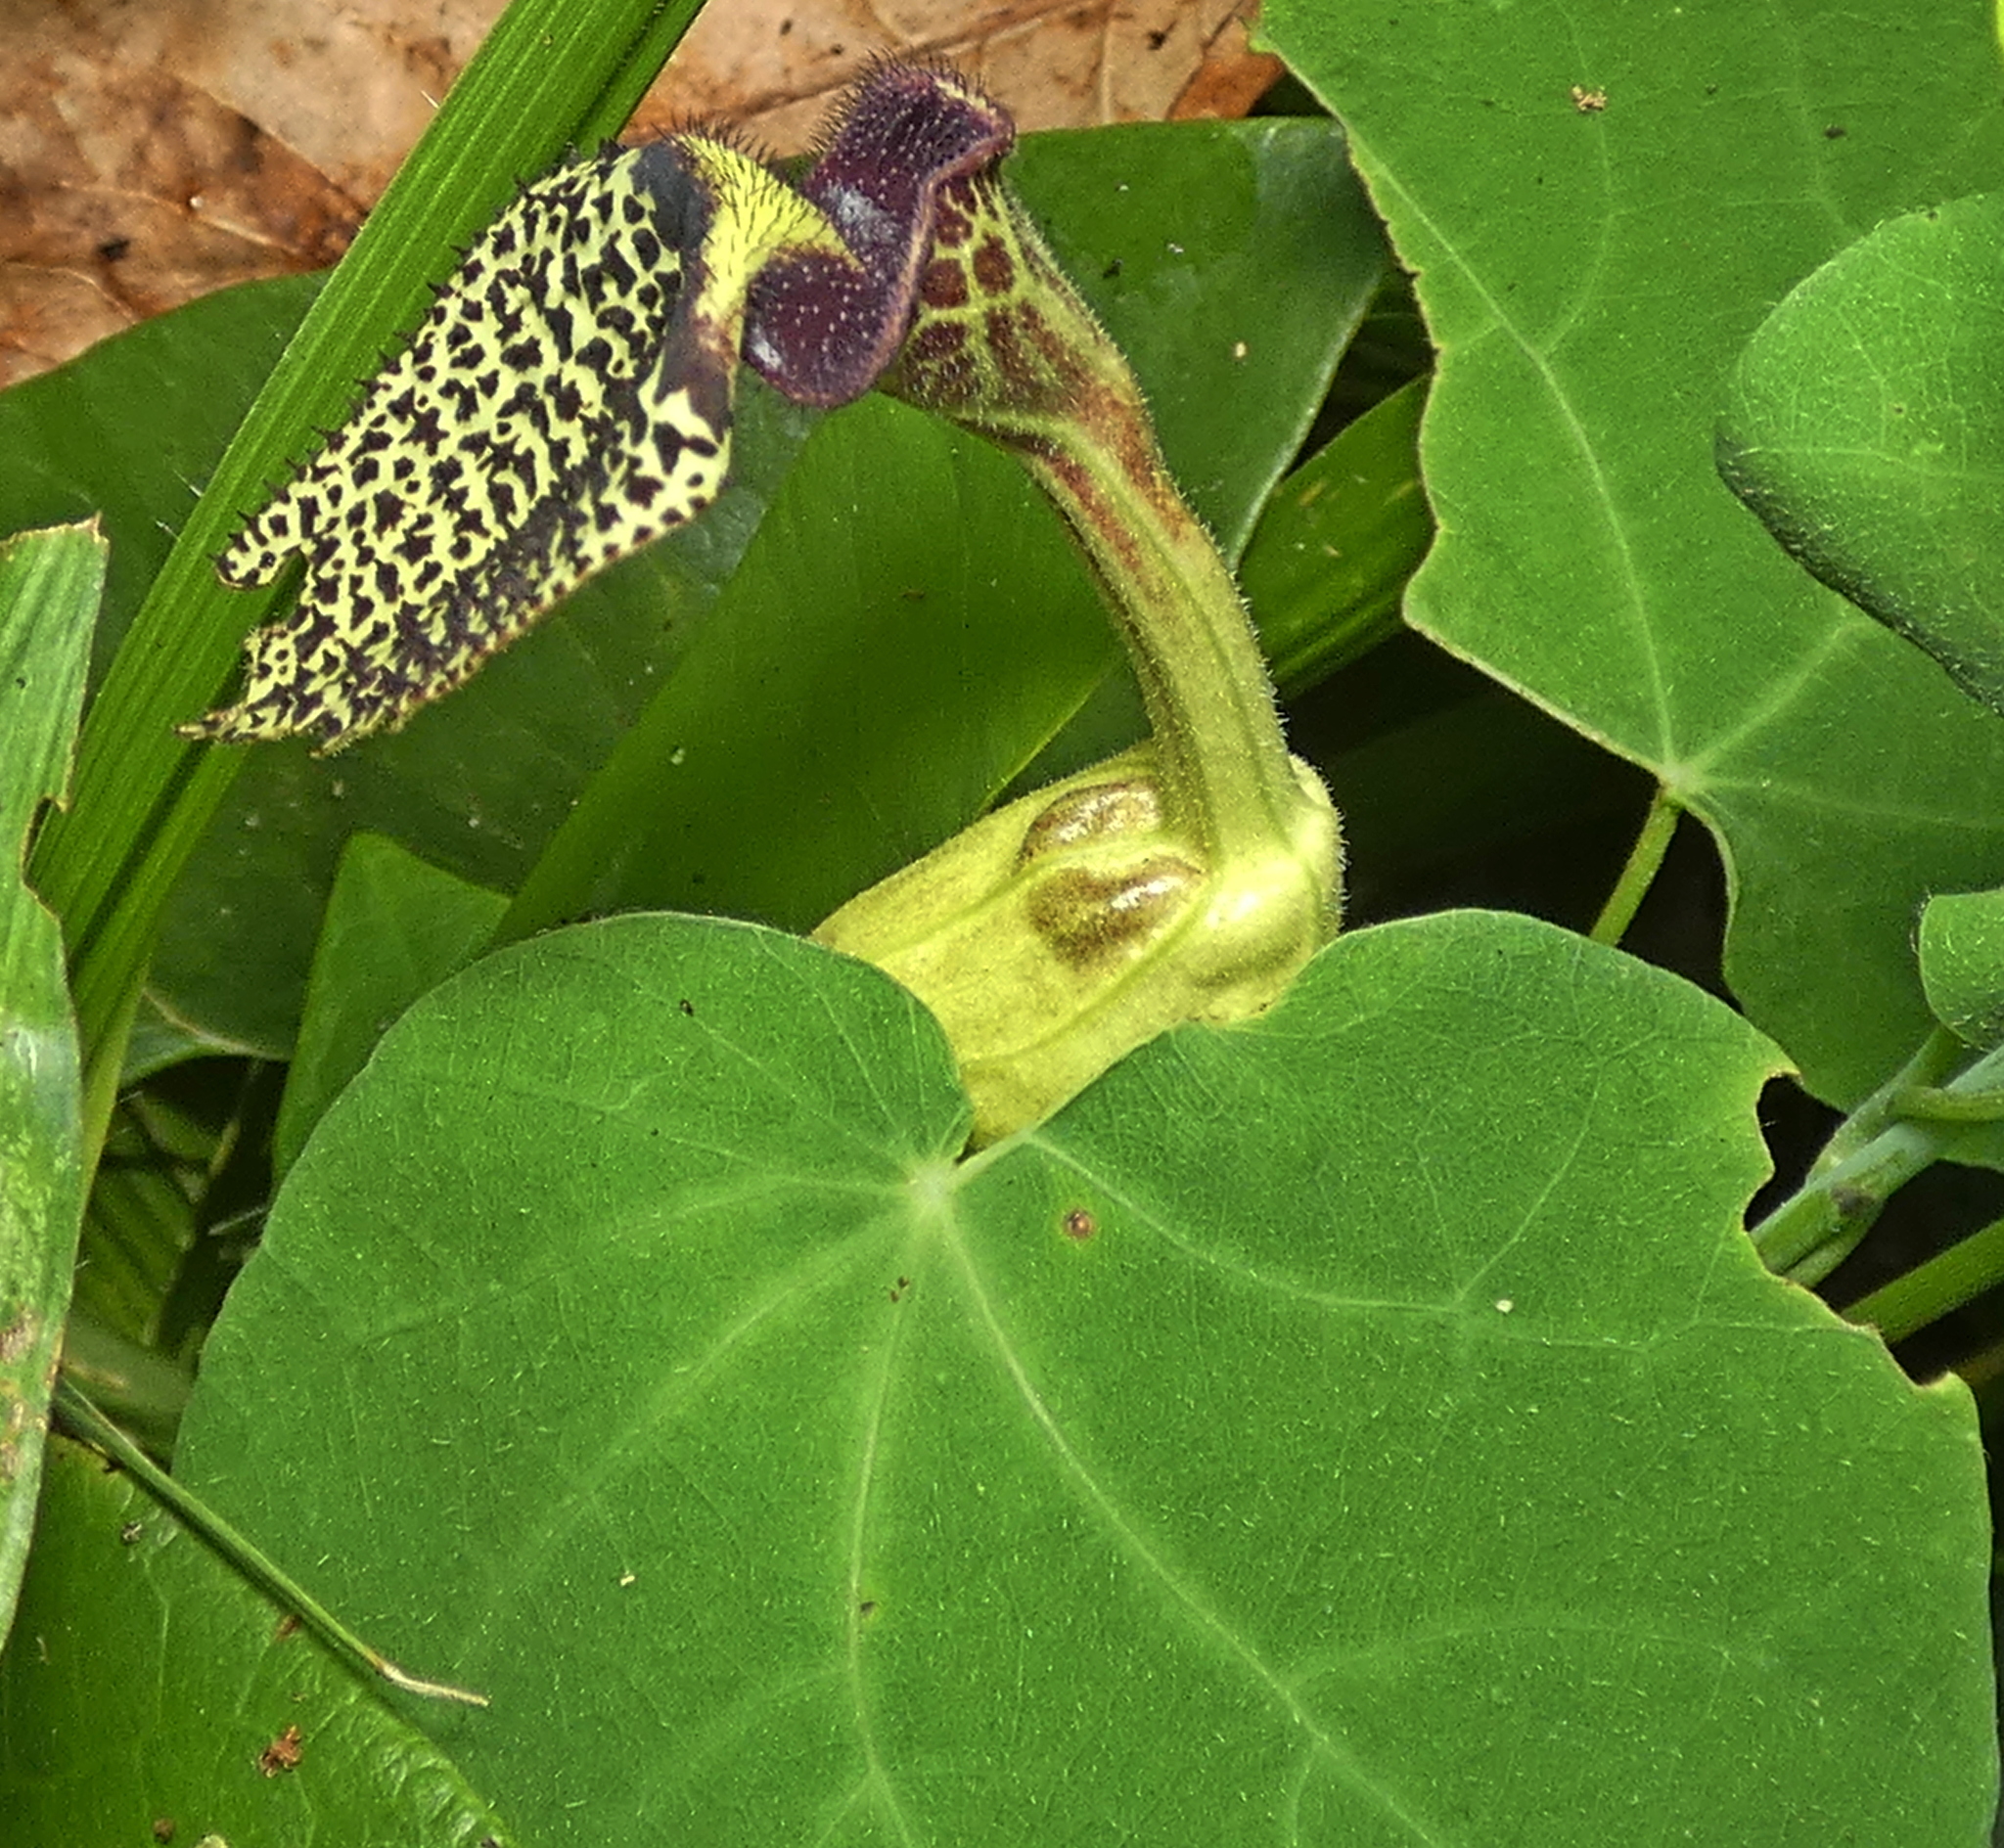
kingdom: Plantae
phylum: Tracheophyta
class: Magnoliopsida
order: Piperales
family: Aristolochiaceae
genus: Aristolochia
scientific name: Aristolochia papillaris
